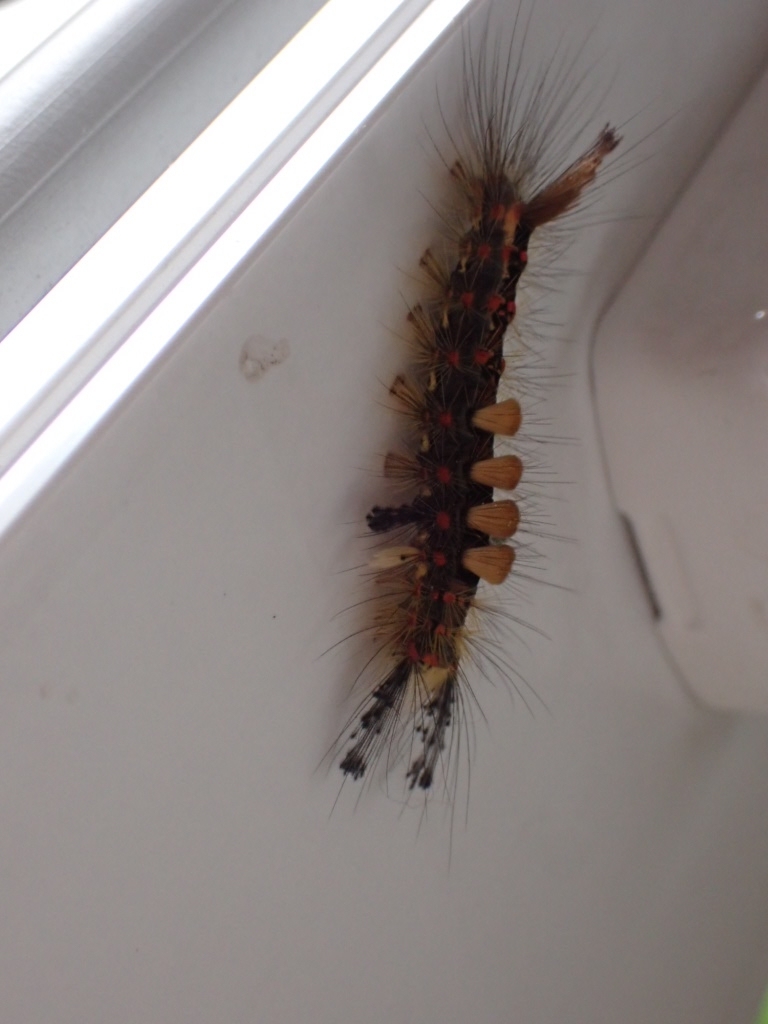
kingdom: Animalia
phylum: Arthropoda
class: Insecta
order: Lepidoptera
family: Erebidae
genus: Orgyia
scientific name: Orgyia antiqua
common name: Vapourer
